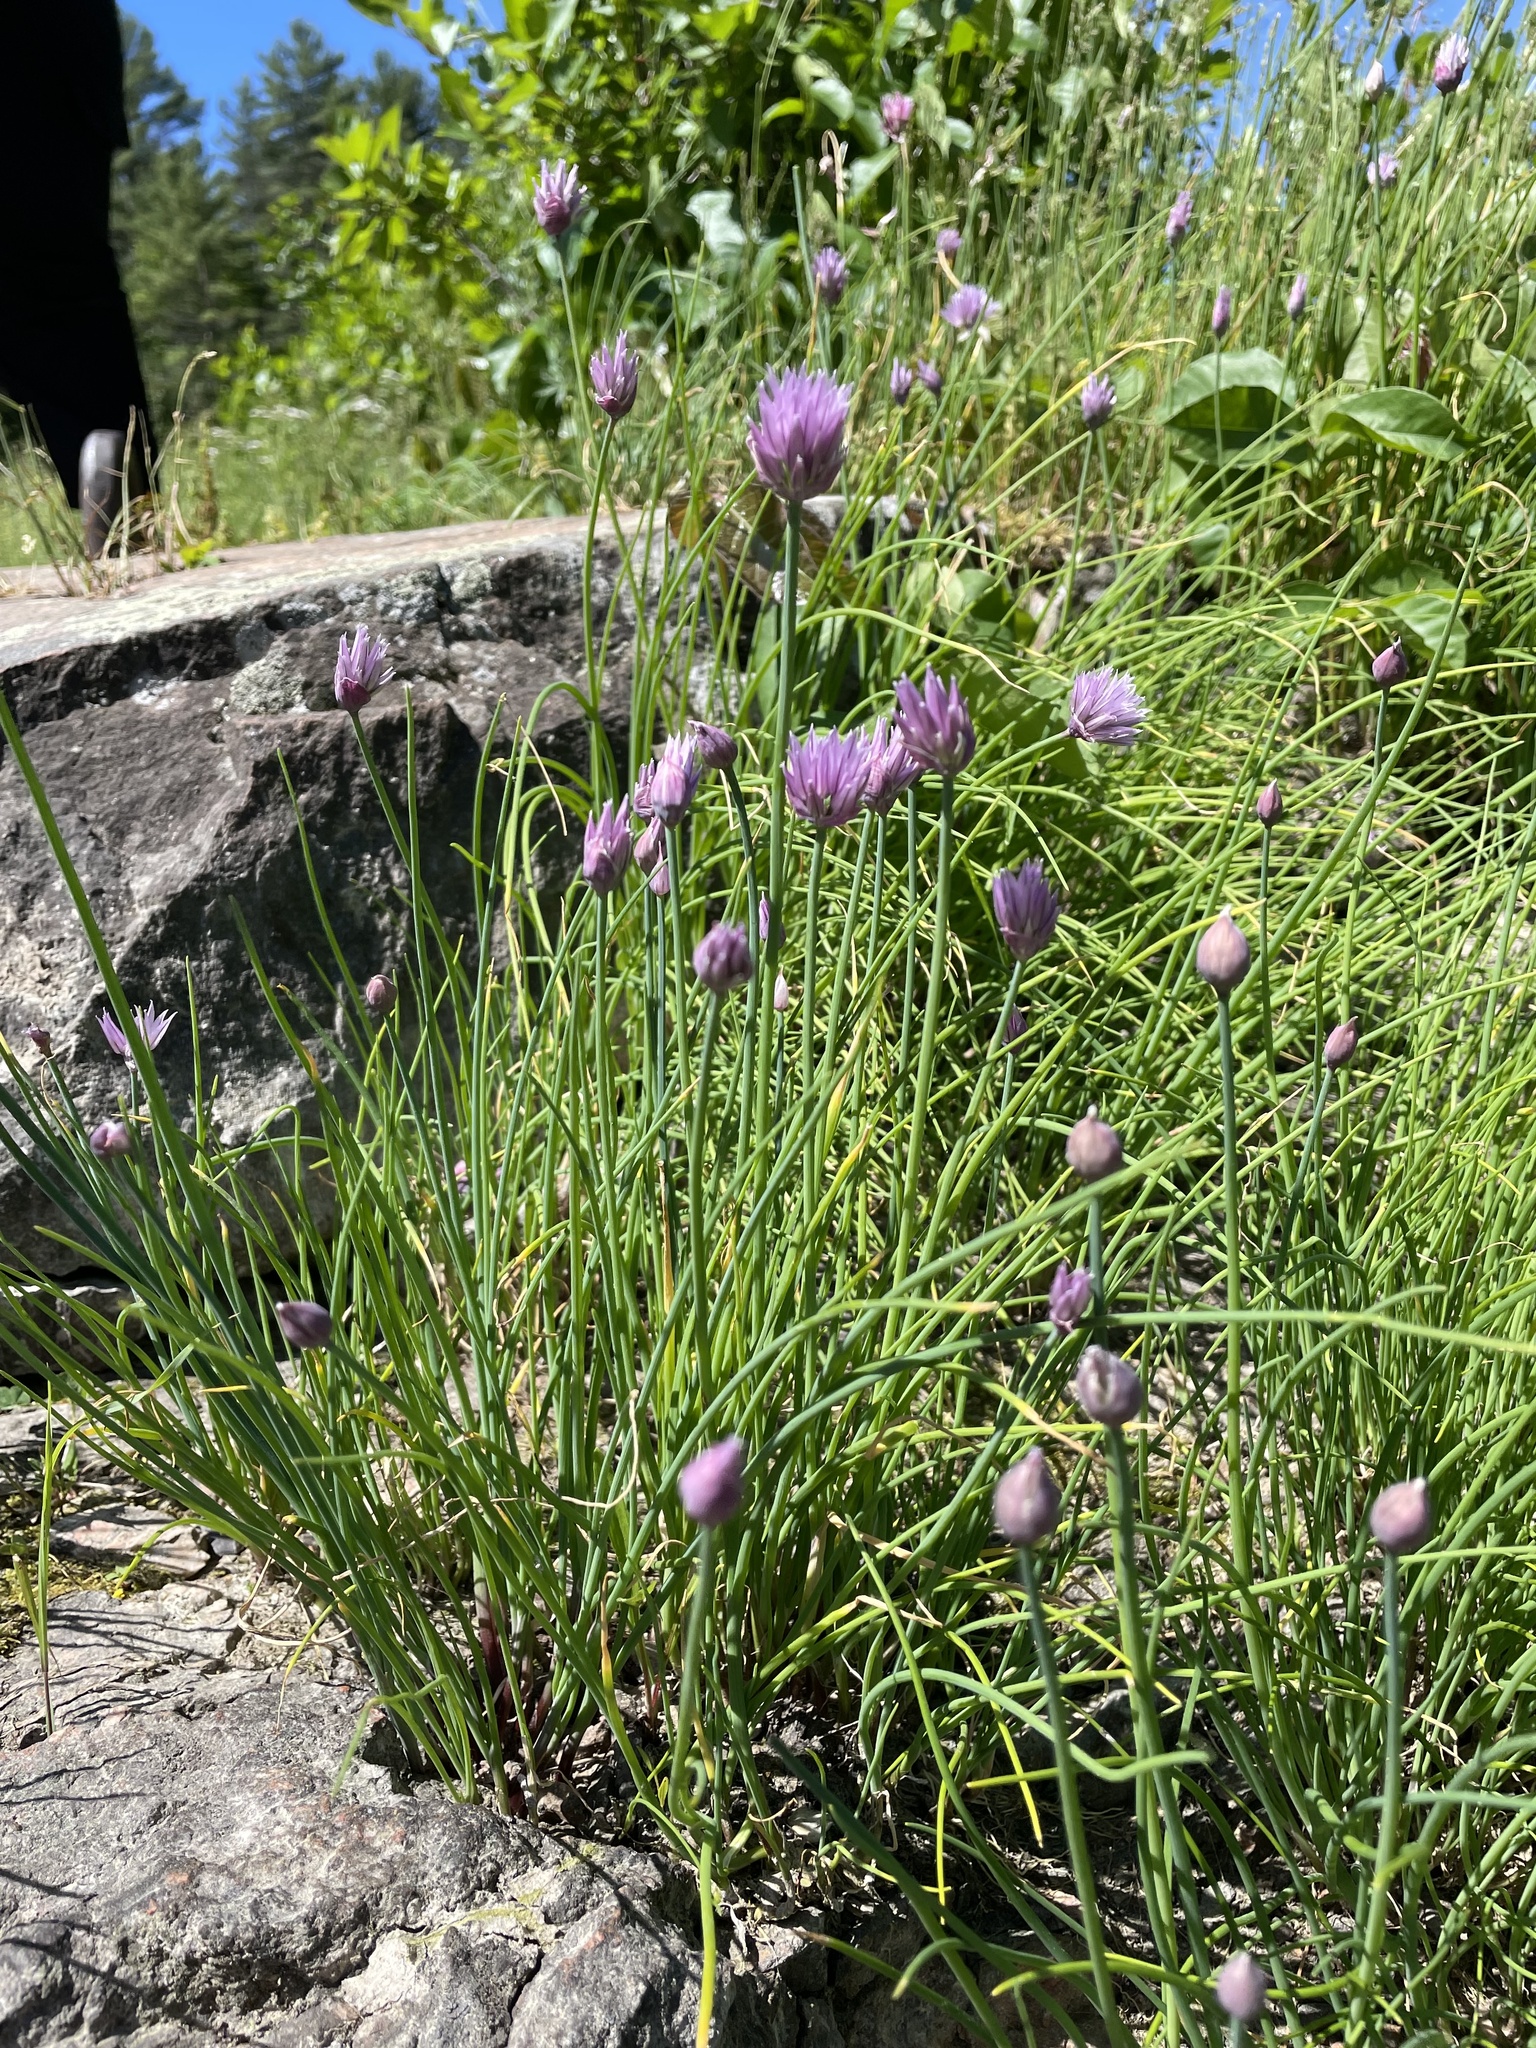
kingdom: Plantae
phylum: Tracheophyta
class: Liliopsida
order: Asparagales
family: Amaryllidaceae
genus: Allium
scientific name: Allium schoenoprasum
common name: Chives
